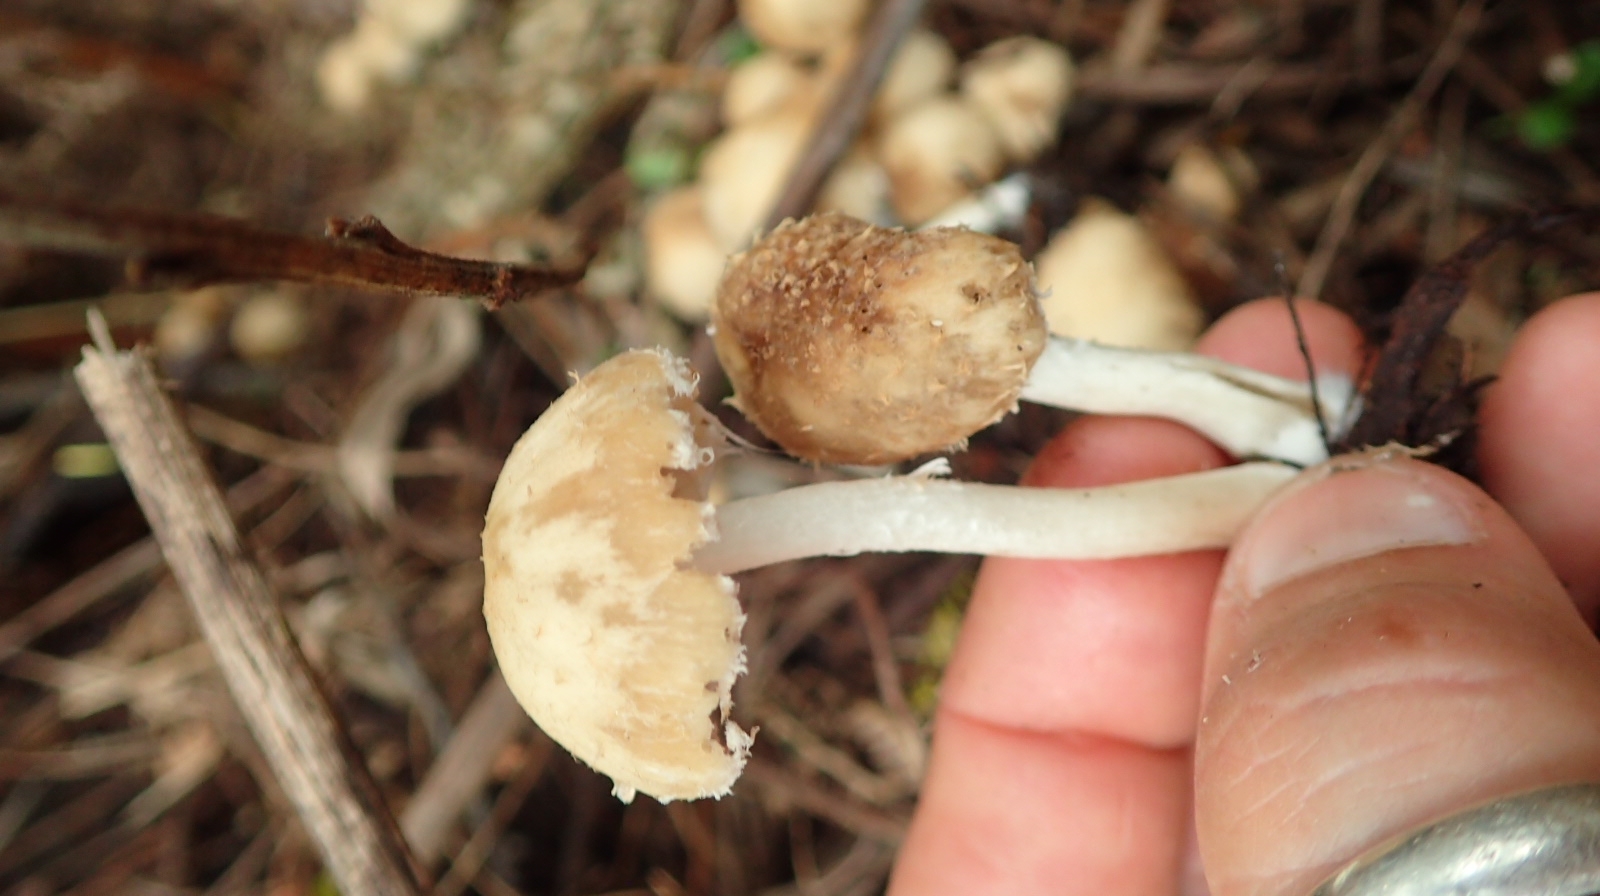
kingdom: Fungi
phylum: Basidiomycota
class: Agaricomycetes
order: Agaricales
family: Psathyrellaceae
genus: Candolleomyces
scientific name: Candolleomyces candolleanus
